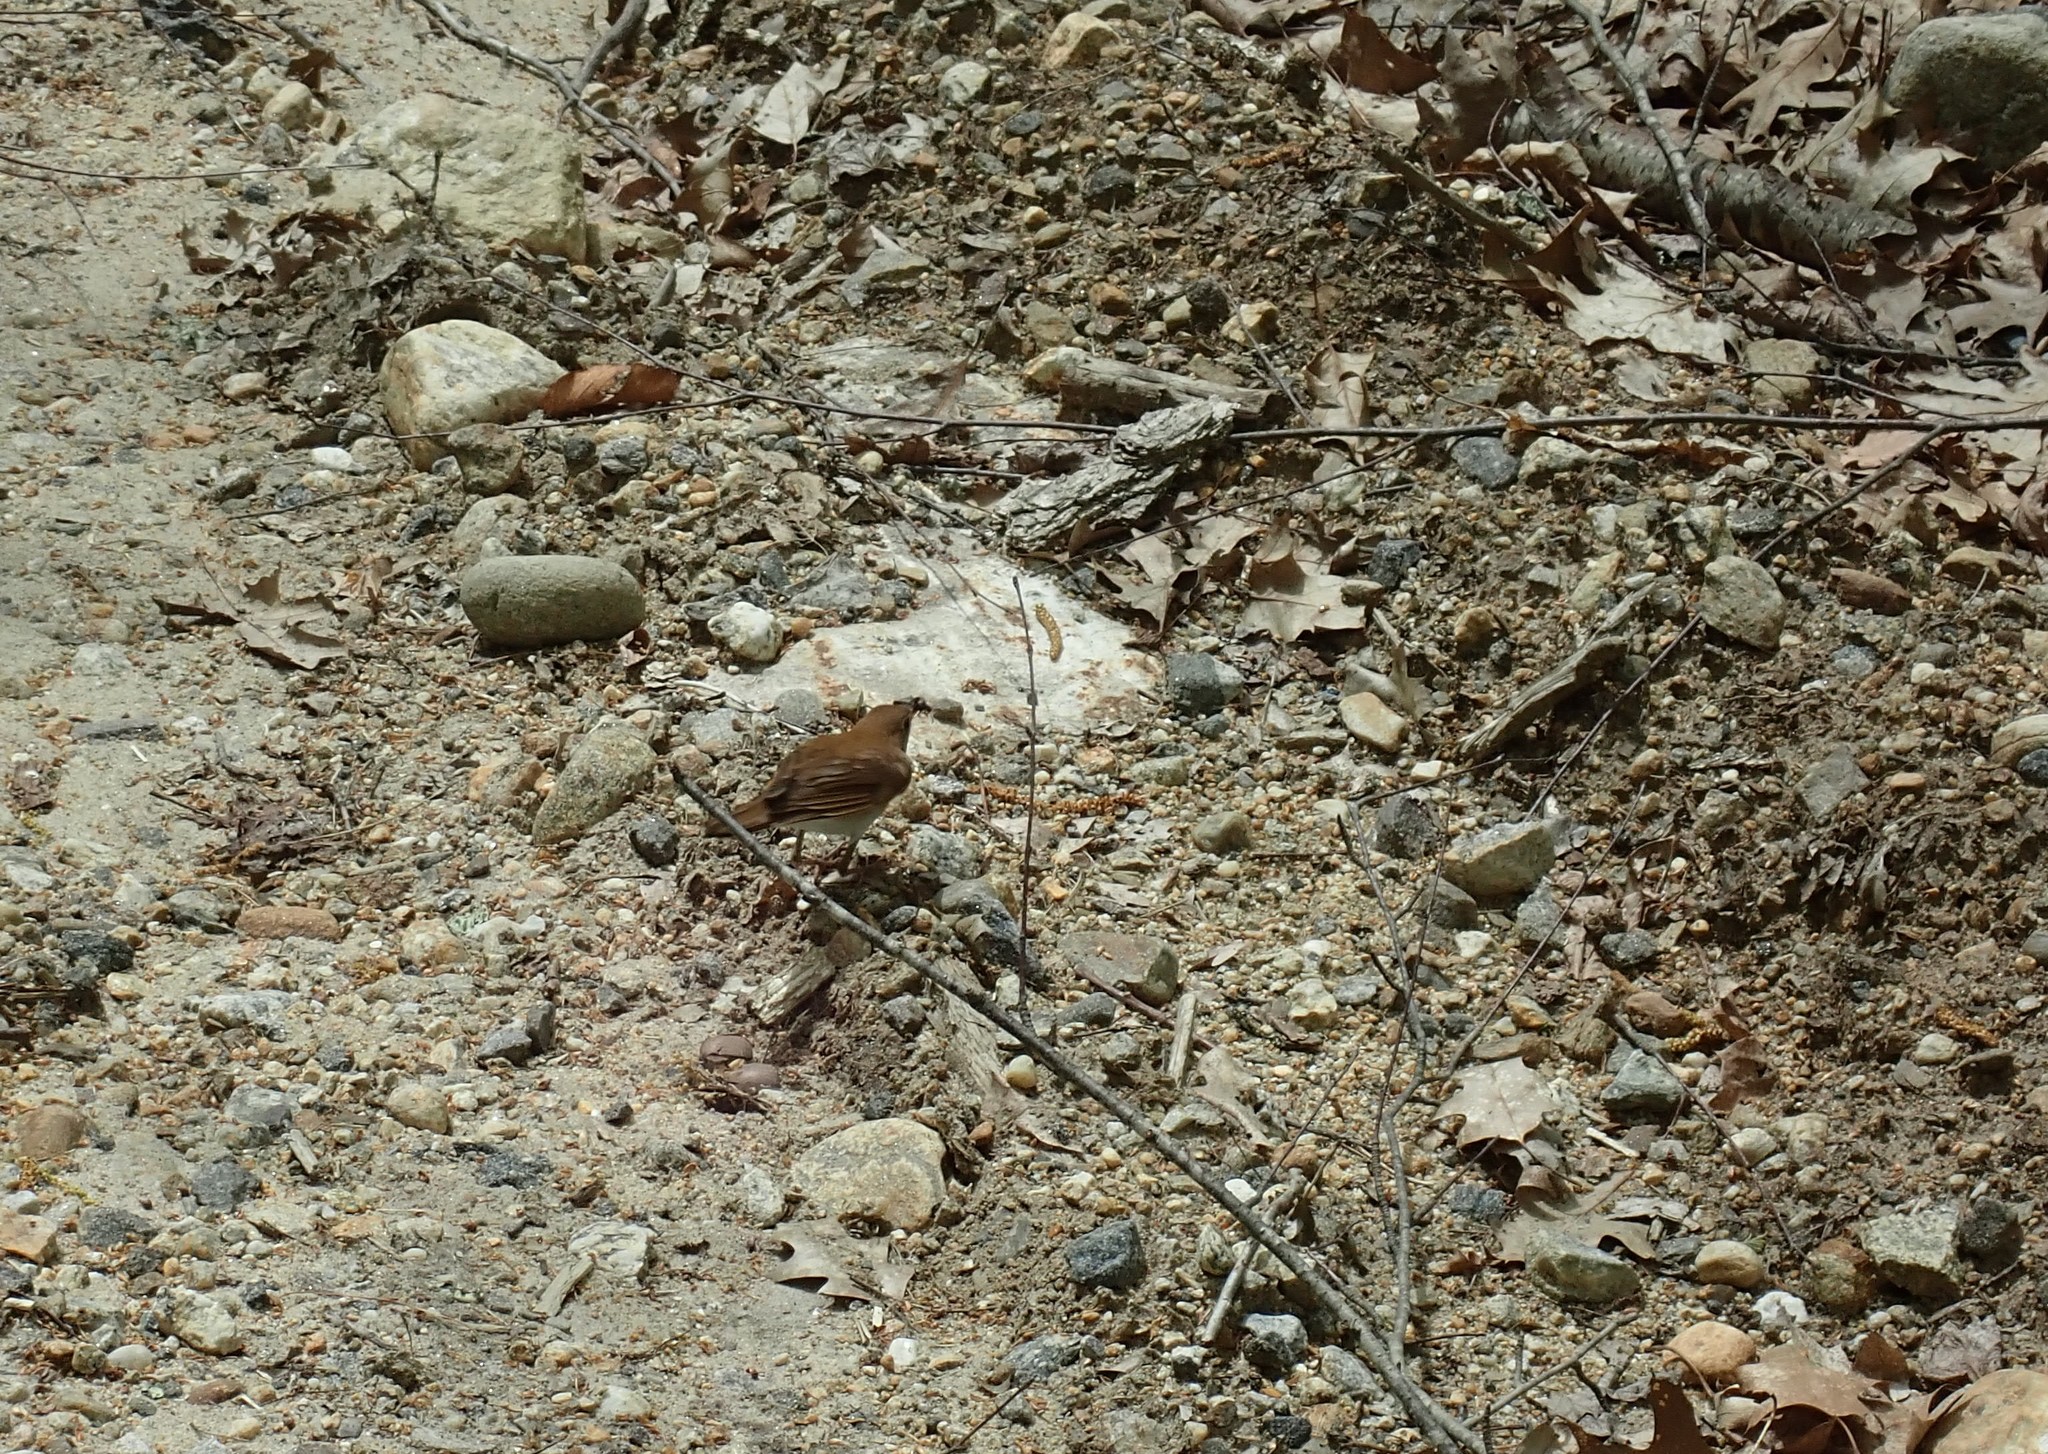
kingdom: Animalia
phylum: Chordata
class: Aves
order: Passeriformes
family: Turdidae
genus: Catharus
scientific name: Catharus fuscescens
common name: Veery
